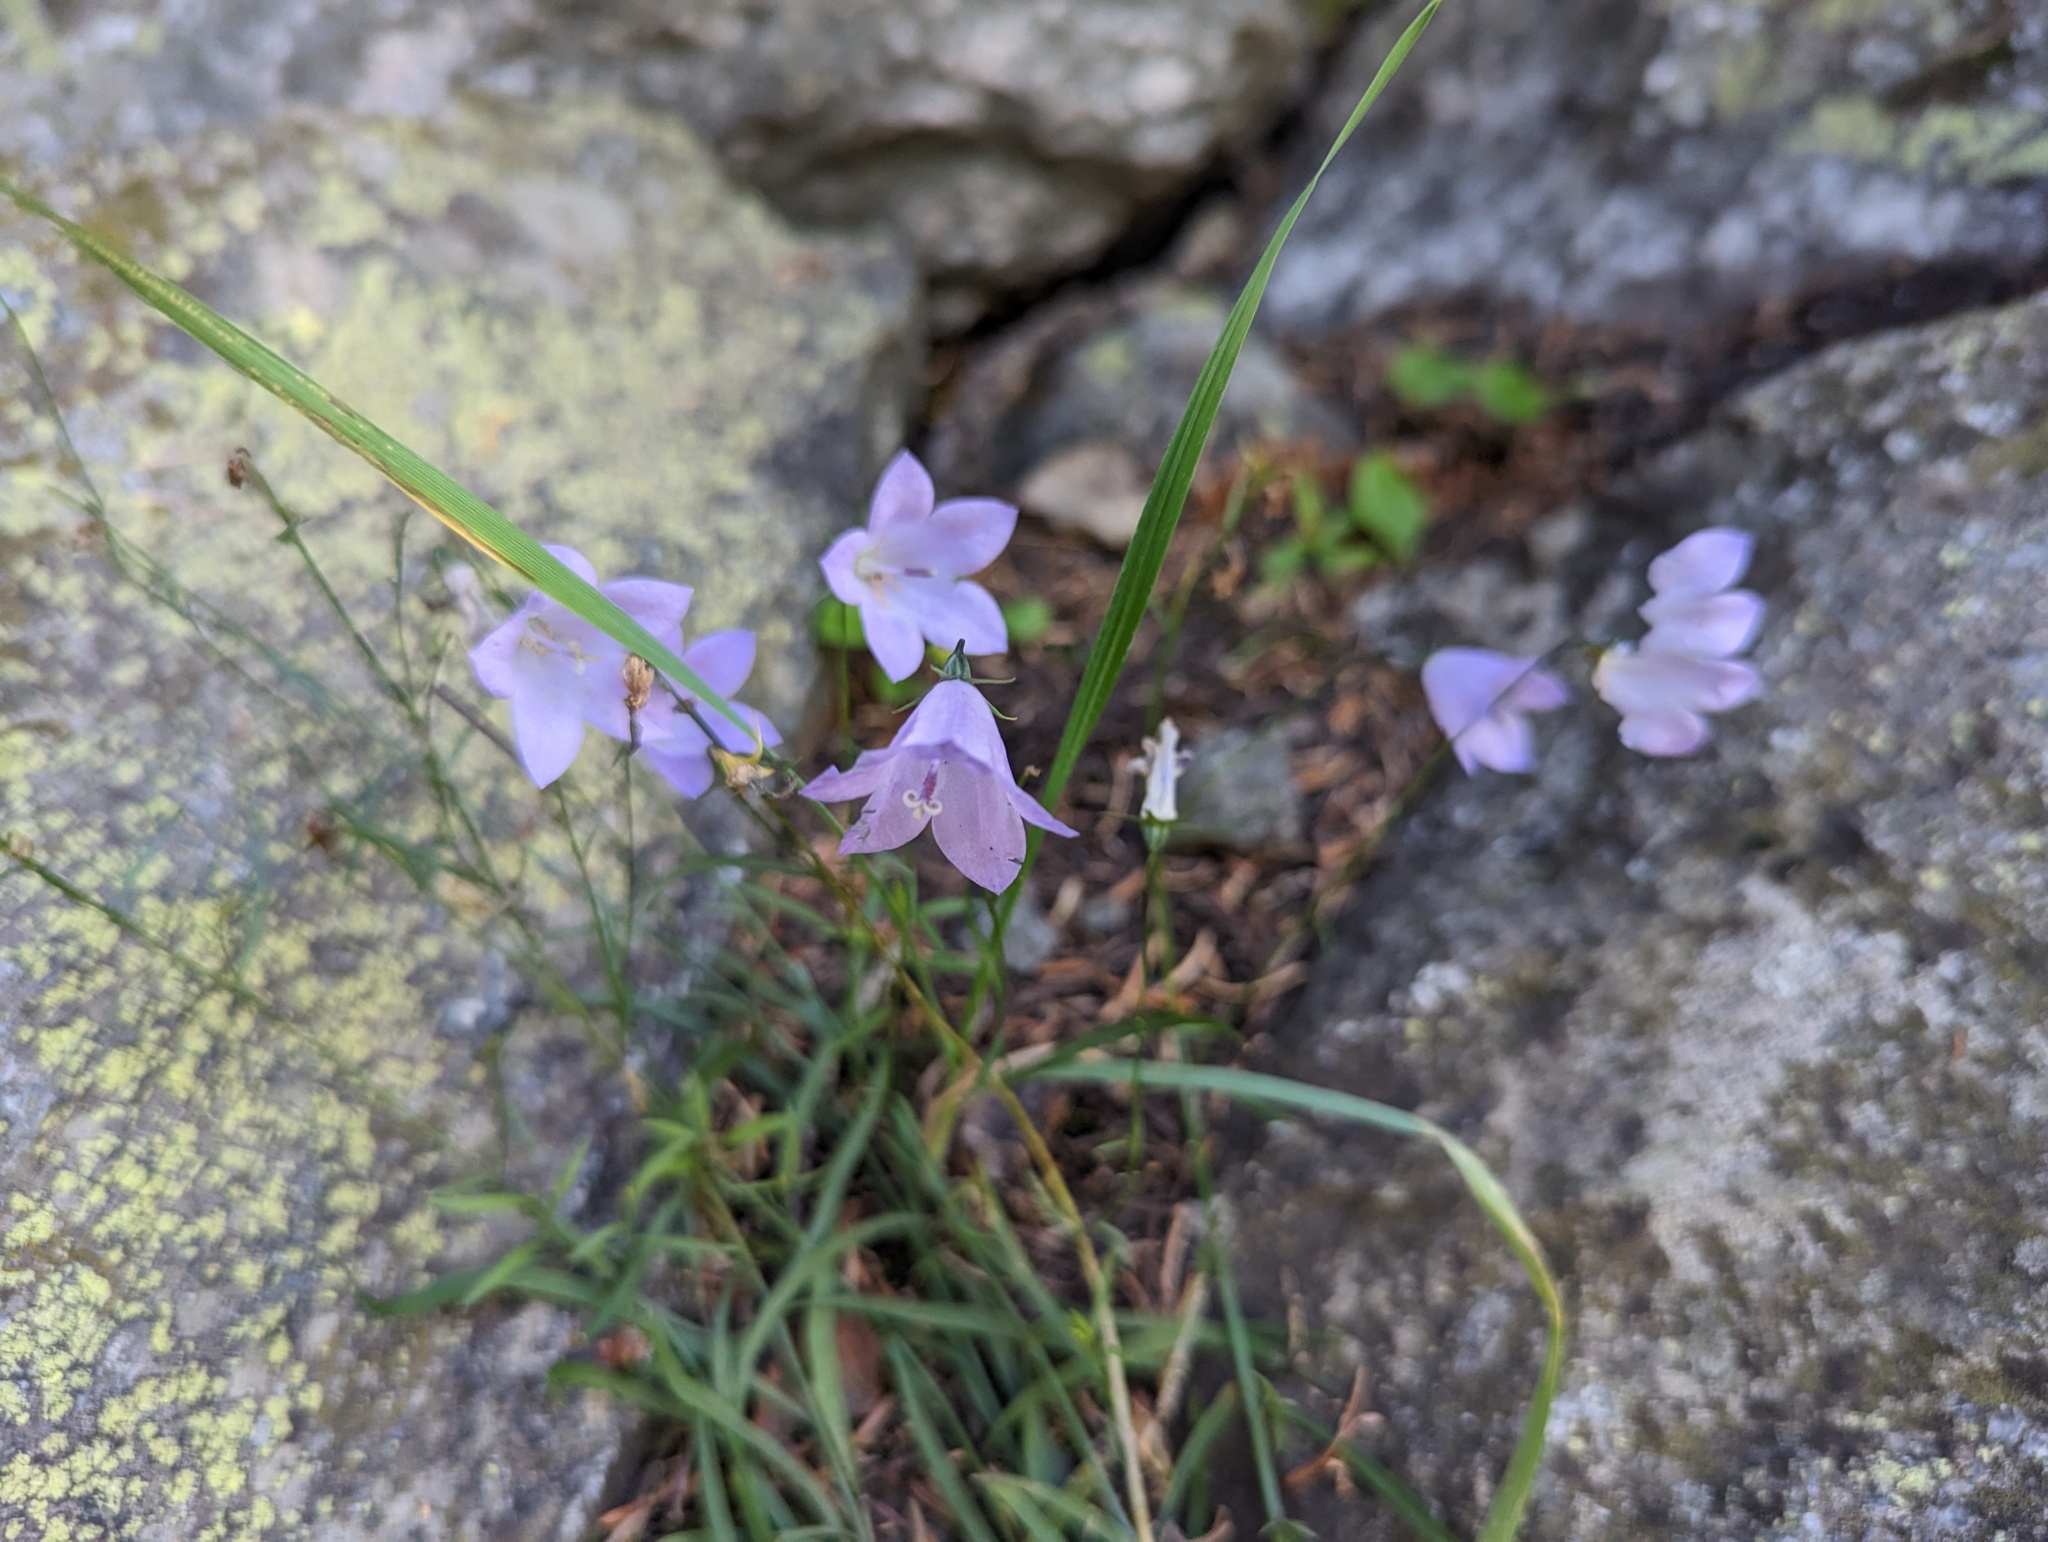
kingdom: Plantae
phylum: Tracheophyta
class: Magnoliopsida
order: Asterales
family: Campanulaceae
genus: Campanula
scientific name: Campanula
